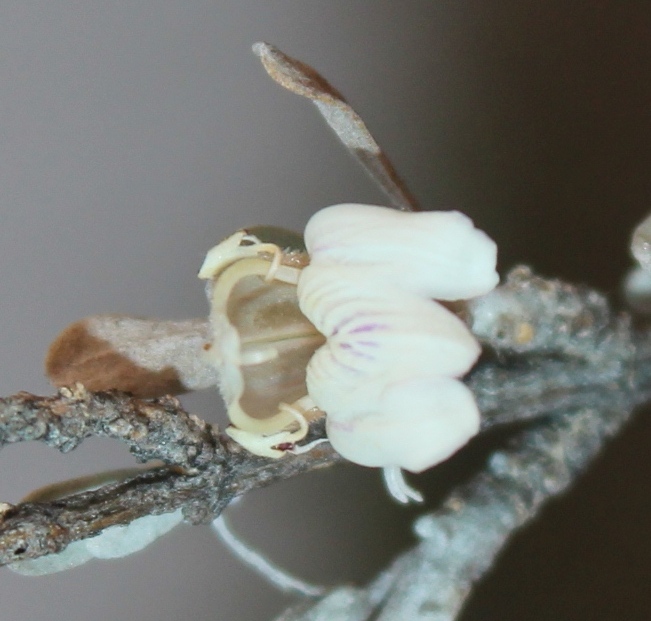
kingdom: Plantae
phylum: Tracheophyta
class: Magnoliopsida
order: Lamiales
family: Acanthaceae
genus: Pogonospermum
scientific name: Pogonospermum
